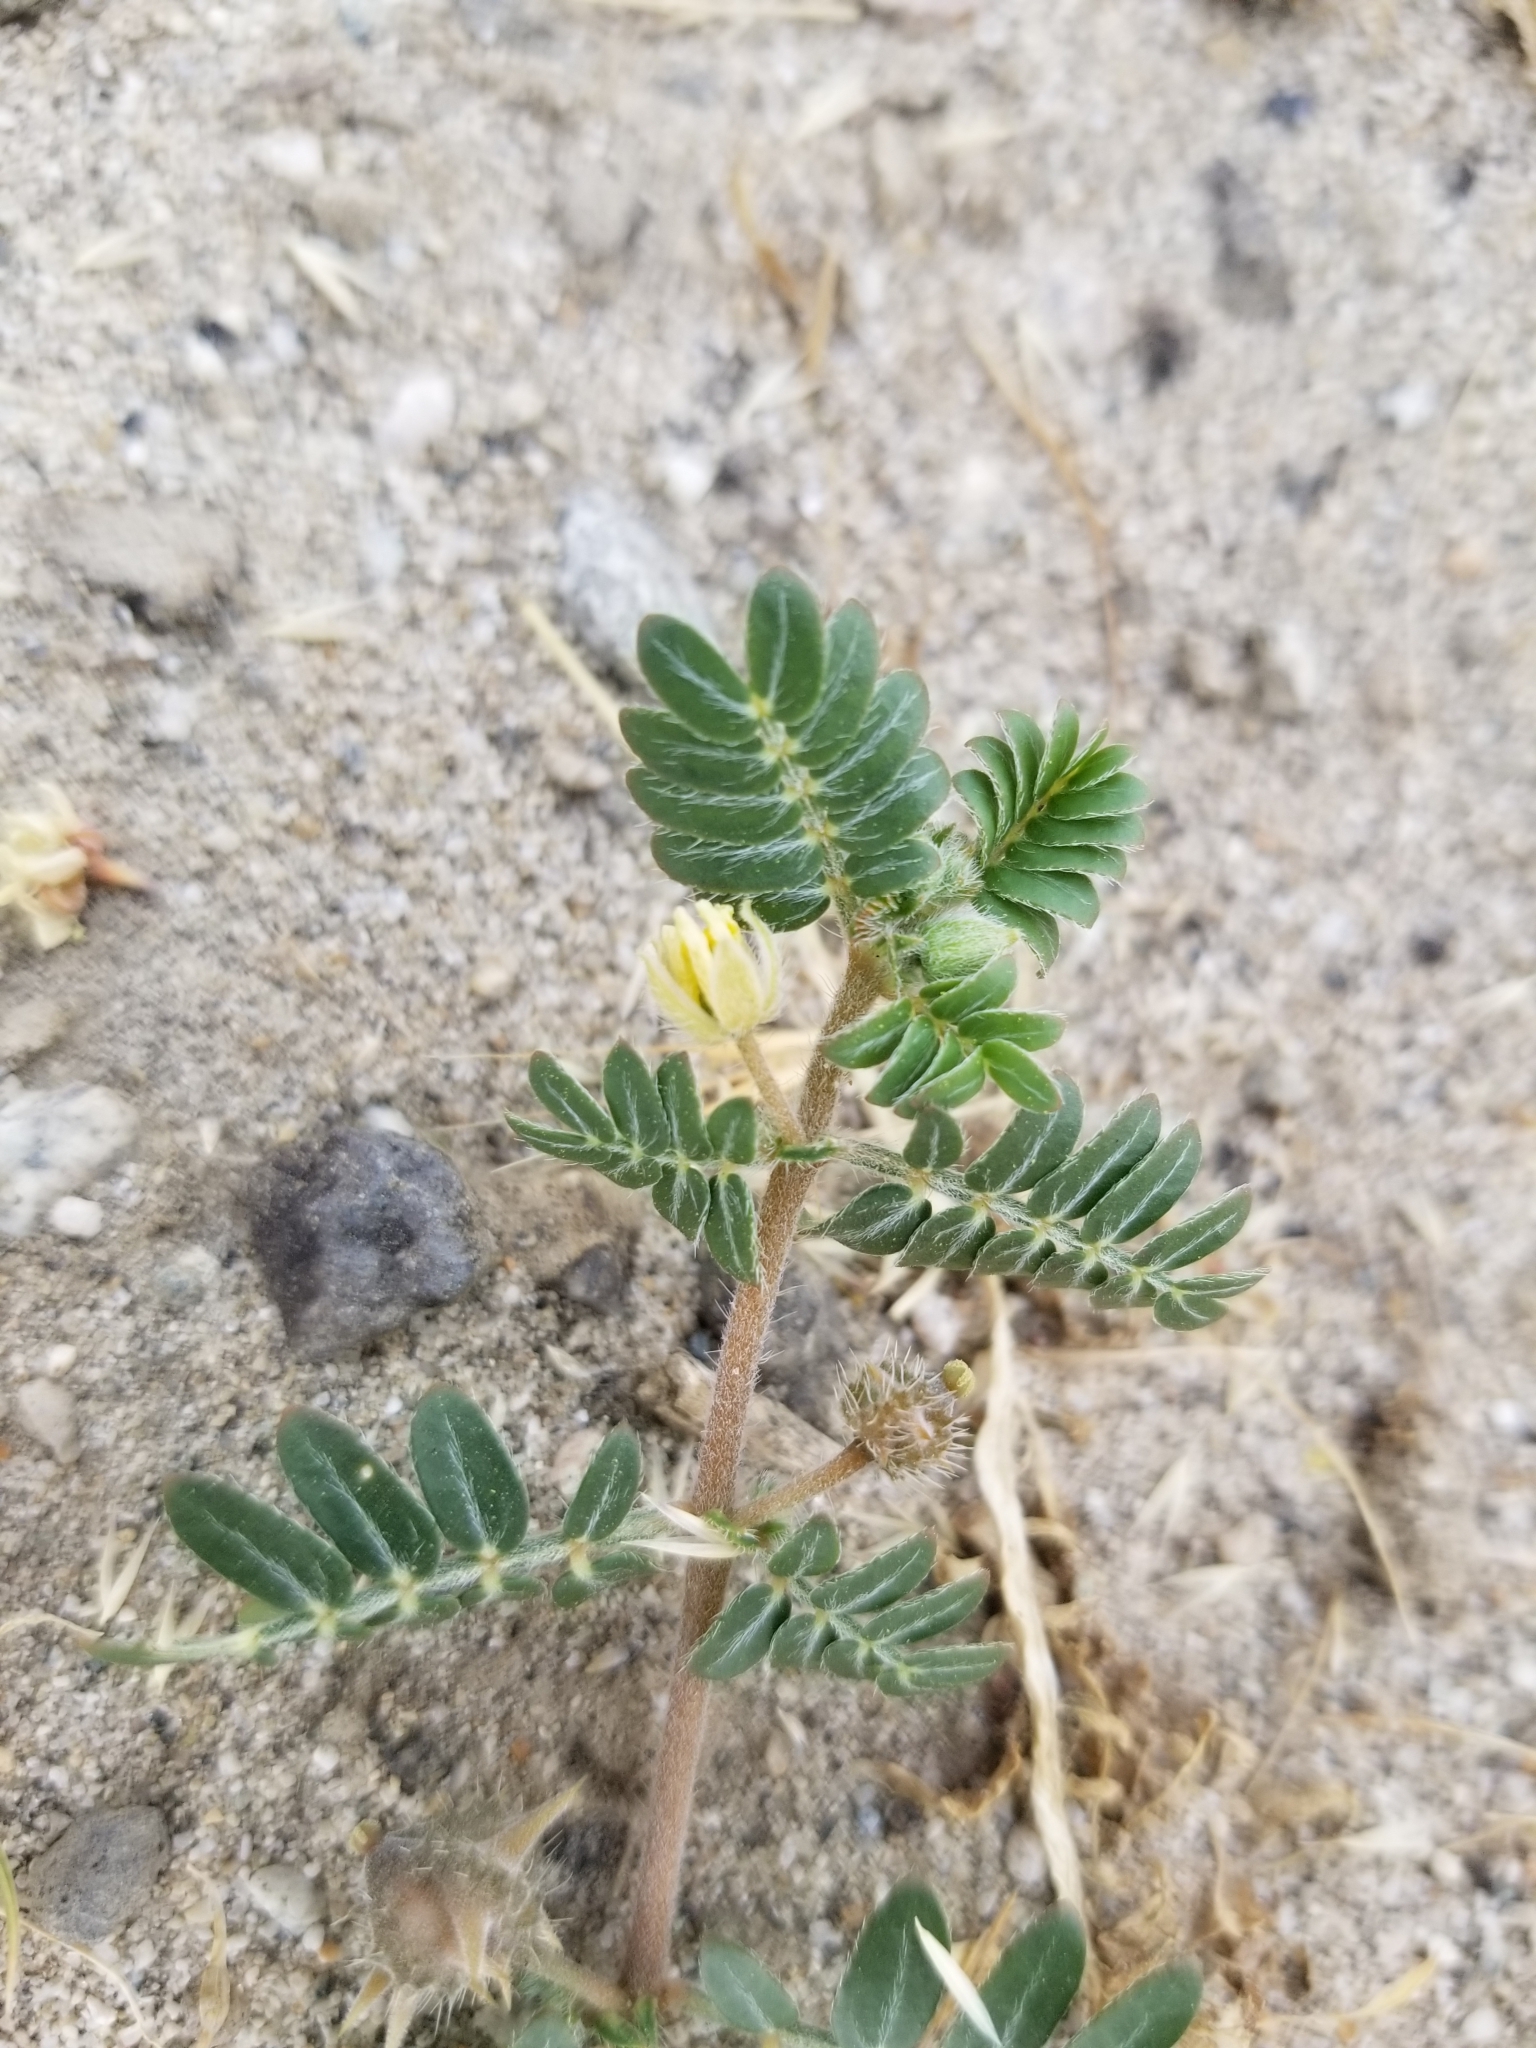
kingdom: Plantae
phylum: Tracheophyta
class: Magnoliopsida
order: Zygophyllales
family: Zygophyllaceae
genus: Tribulus
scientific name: Tribulus terrestris
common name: Puncturevine
